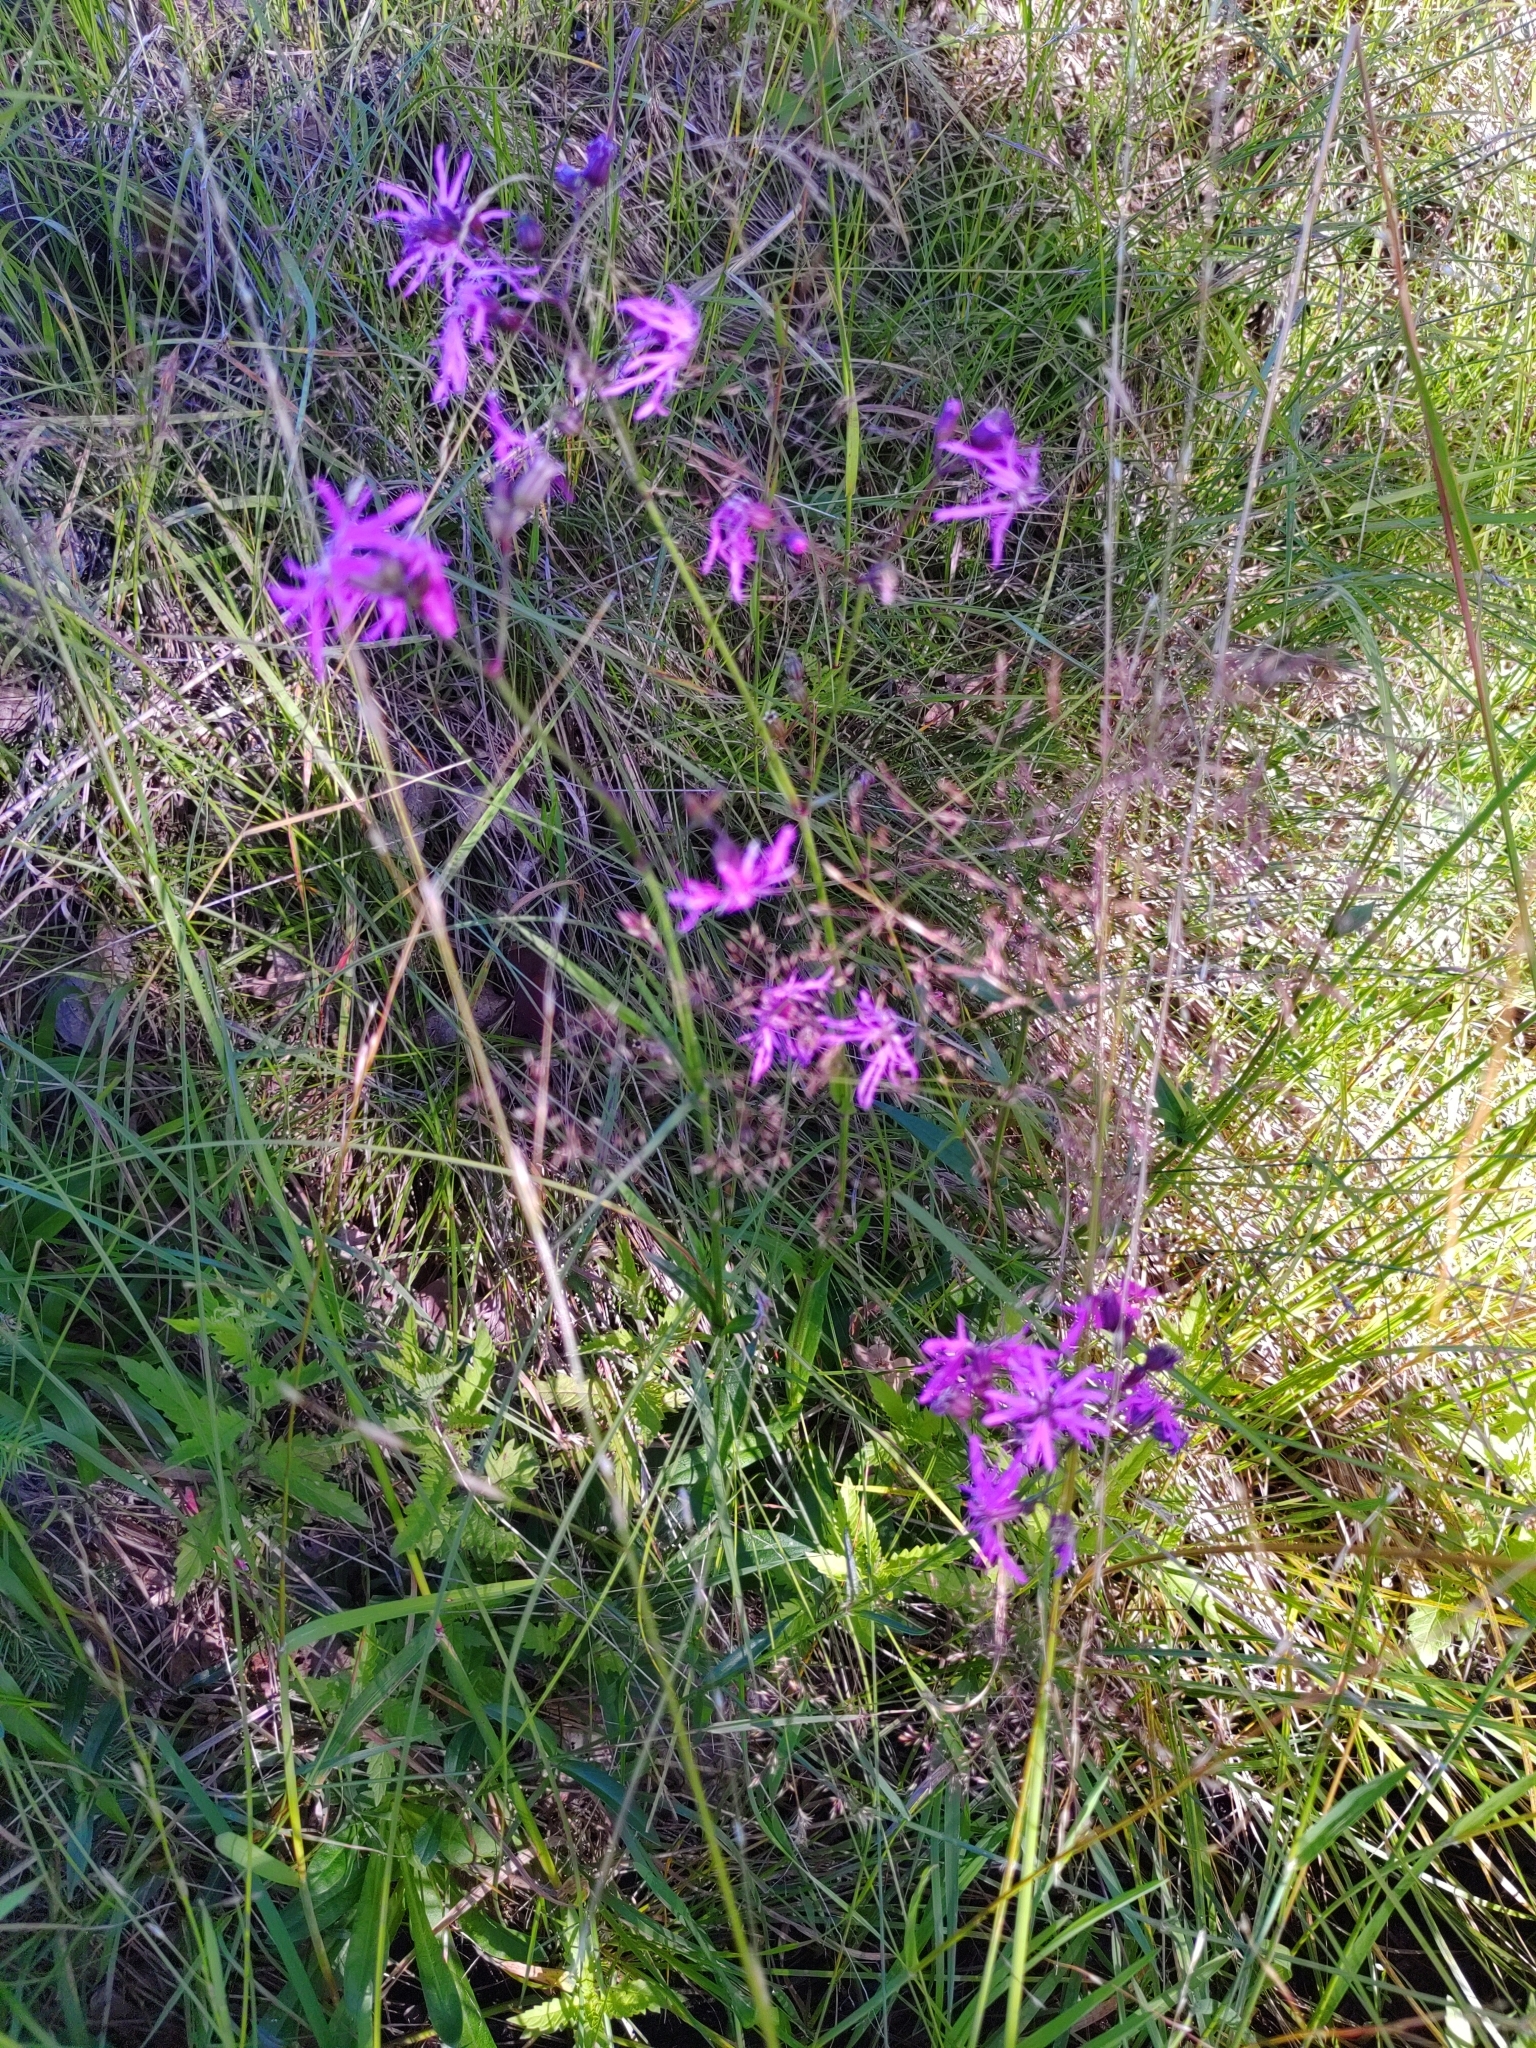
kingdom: Plantae
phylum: Tracheophyta
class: Magnoliopsida
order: Caryophyllales
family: Caryophyllaceae
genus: Silene
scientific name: Silene flos-cuculi
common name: Ragged-robin
